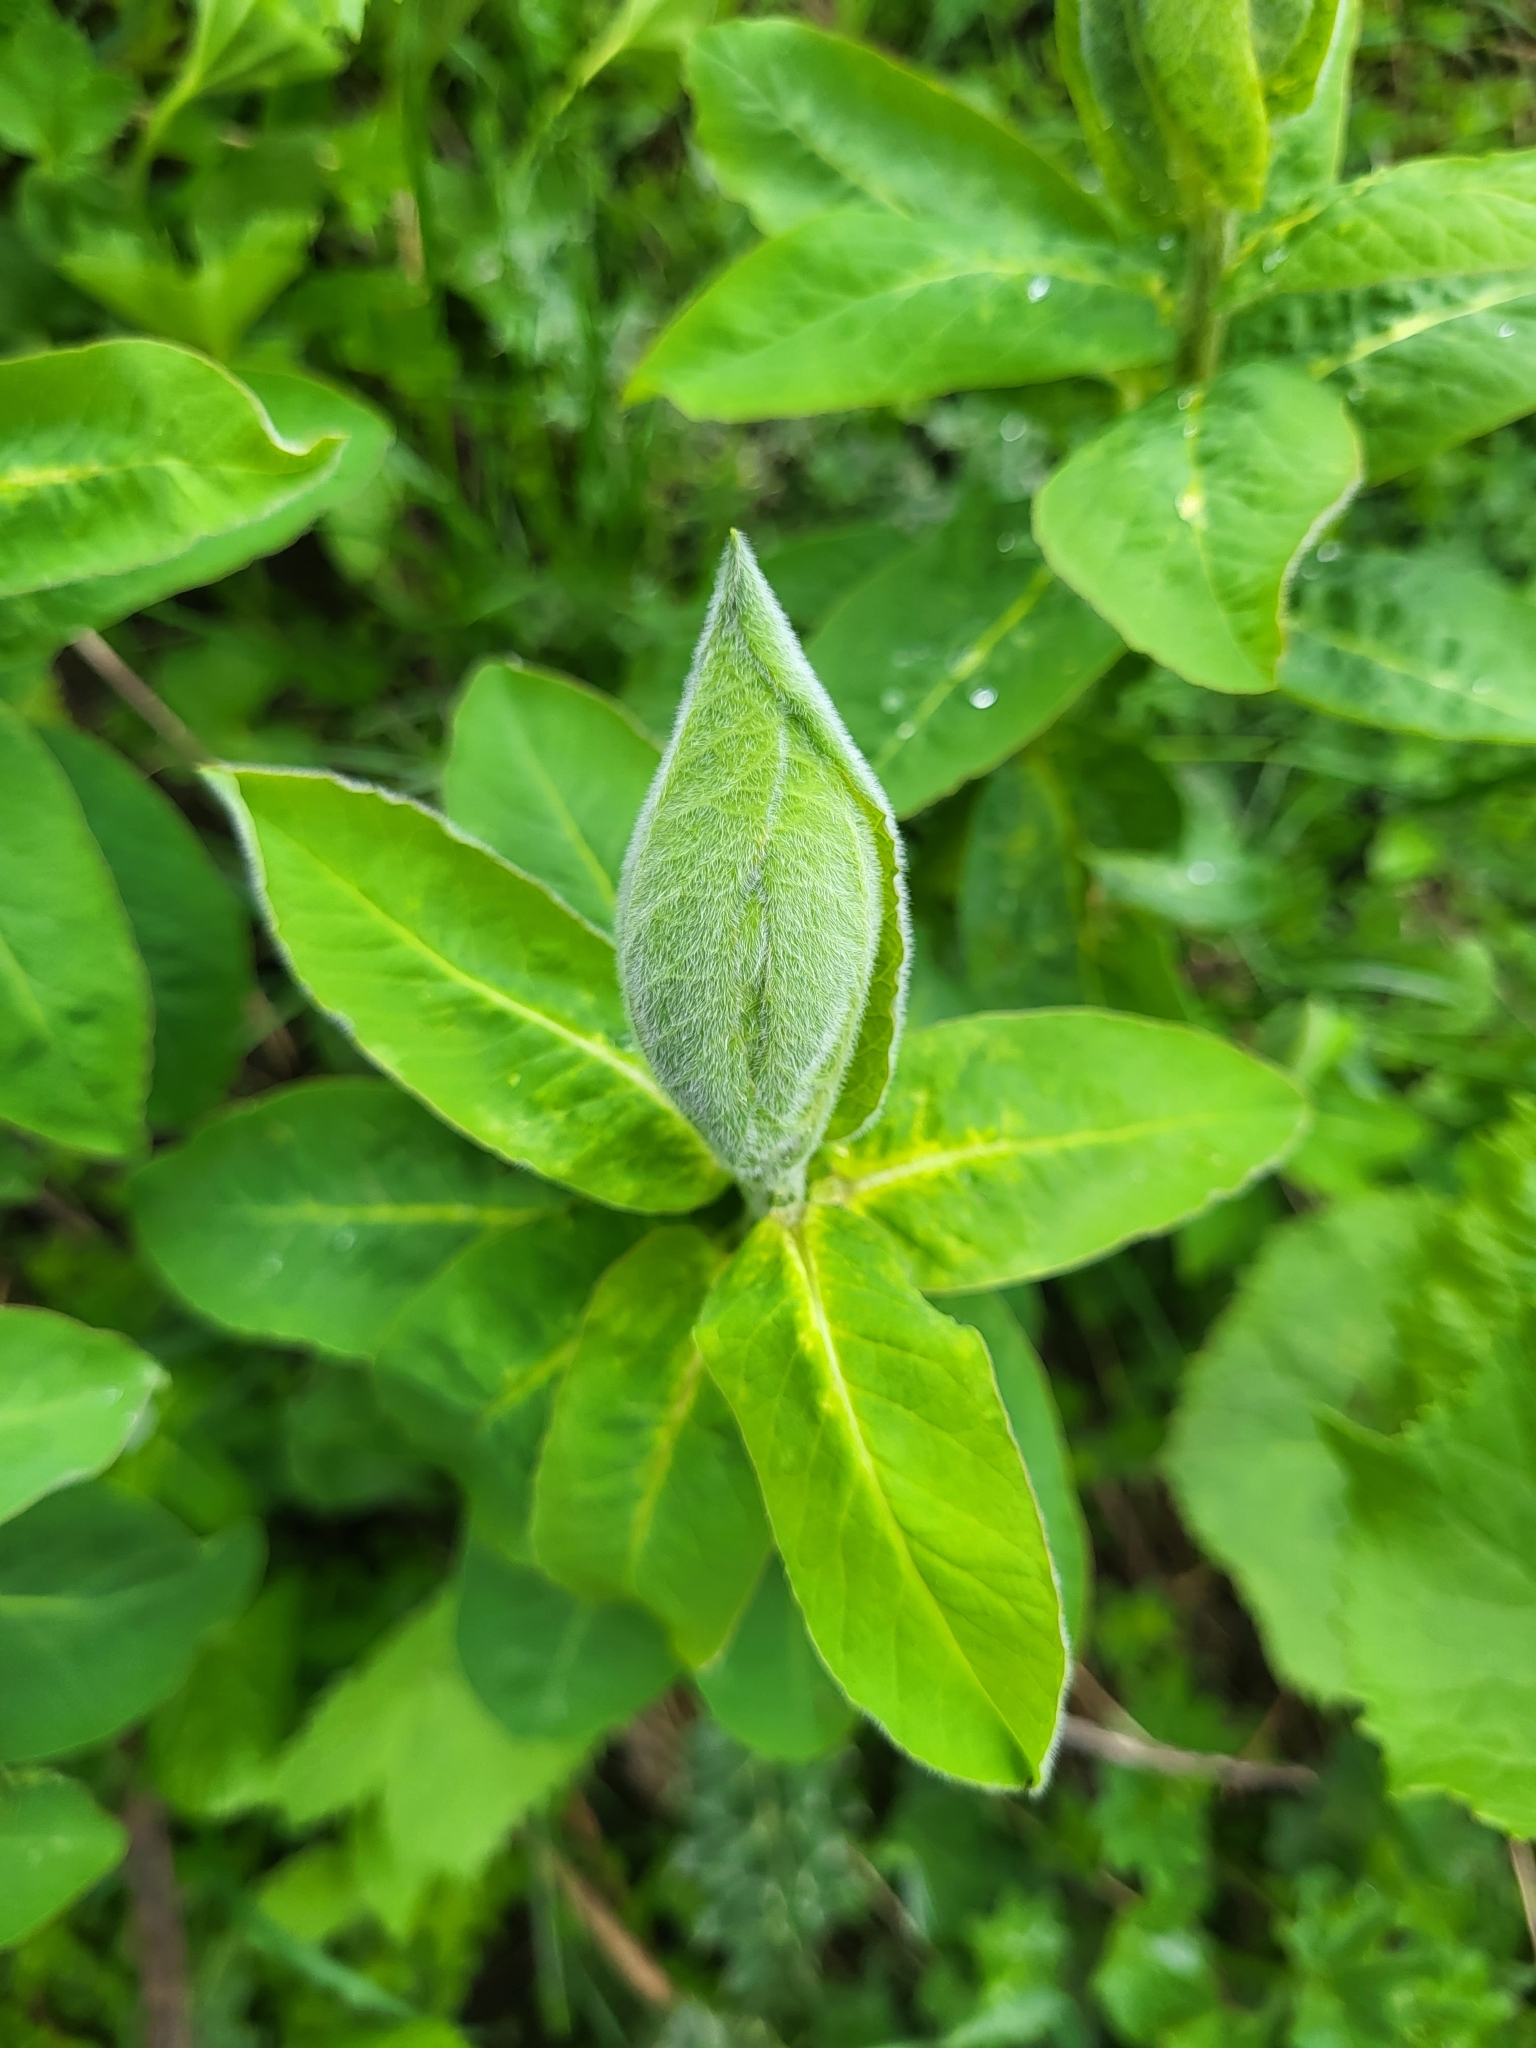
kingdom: Plantae
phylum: Tracheophyta
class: Magnoliopsida
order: Malpighiales
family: Euphorbiaceae
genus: Euphorbia
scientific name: Euphorbia oblongifolia
